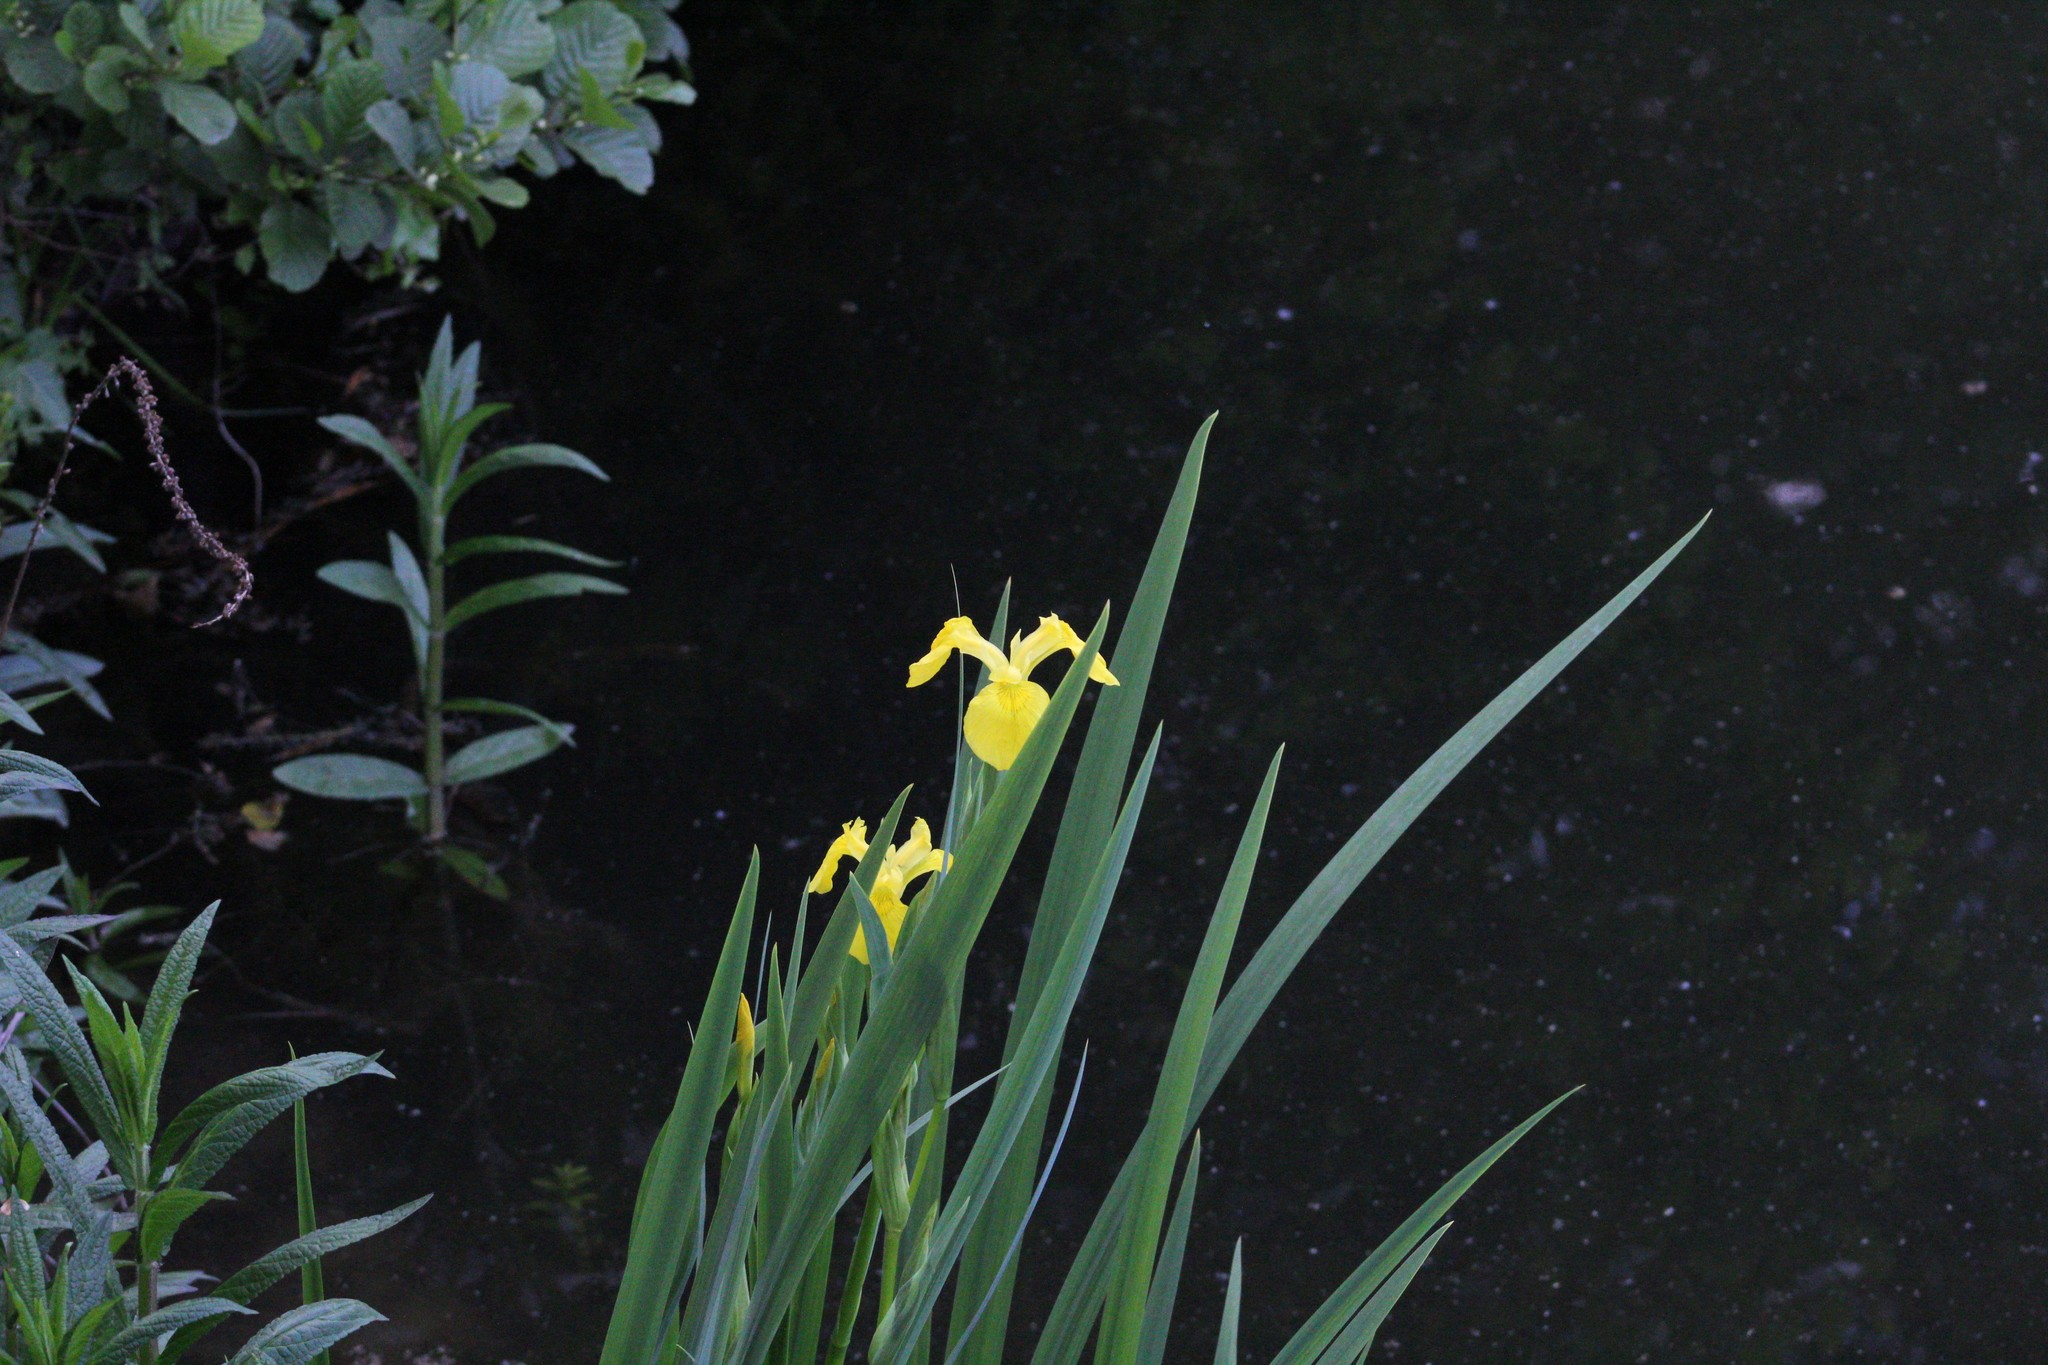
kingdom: Plantae
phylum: Tracheophyta
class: Liliopsida
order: Asparagales
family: Iridaceae
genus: Iris
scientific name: Iris pseudacorus
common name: Yellow flag
